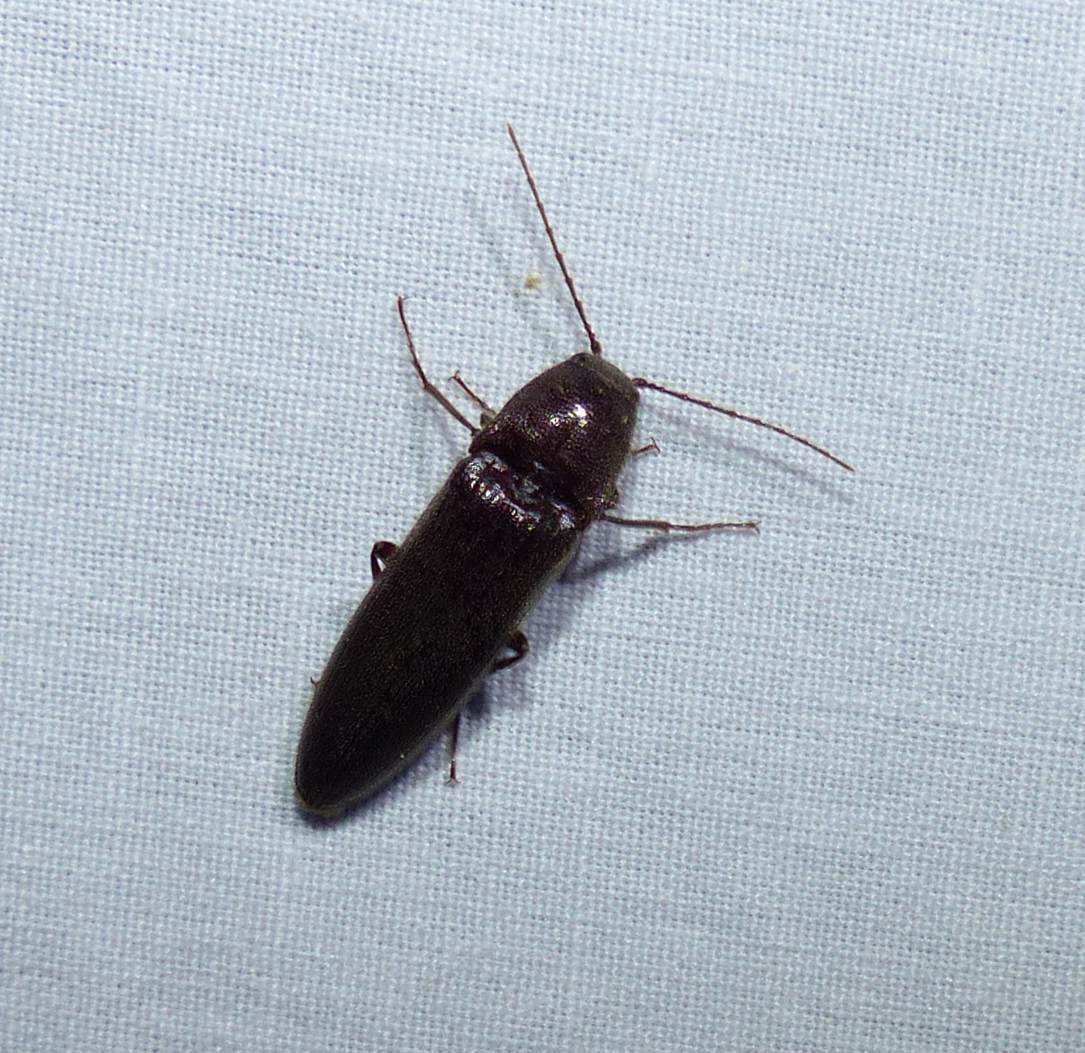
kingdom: Animalia
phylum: Arthropoda
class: Insecta
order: Coleoptera
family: Elateridae
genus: Melanotus
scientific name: Melanotus castanipes
